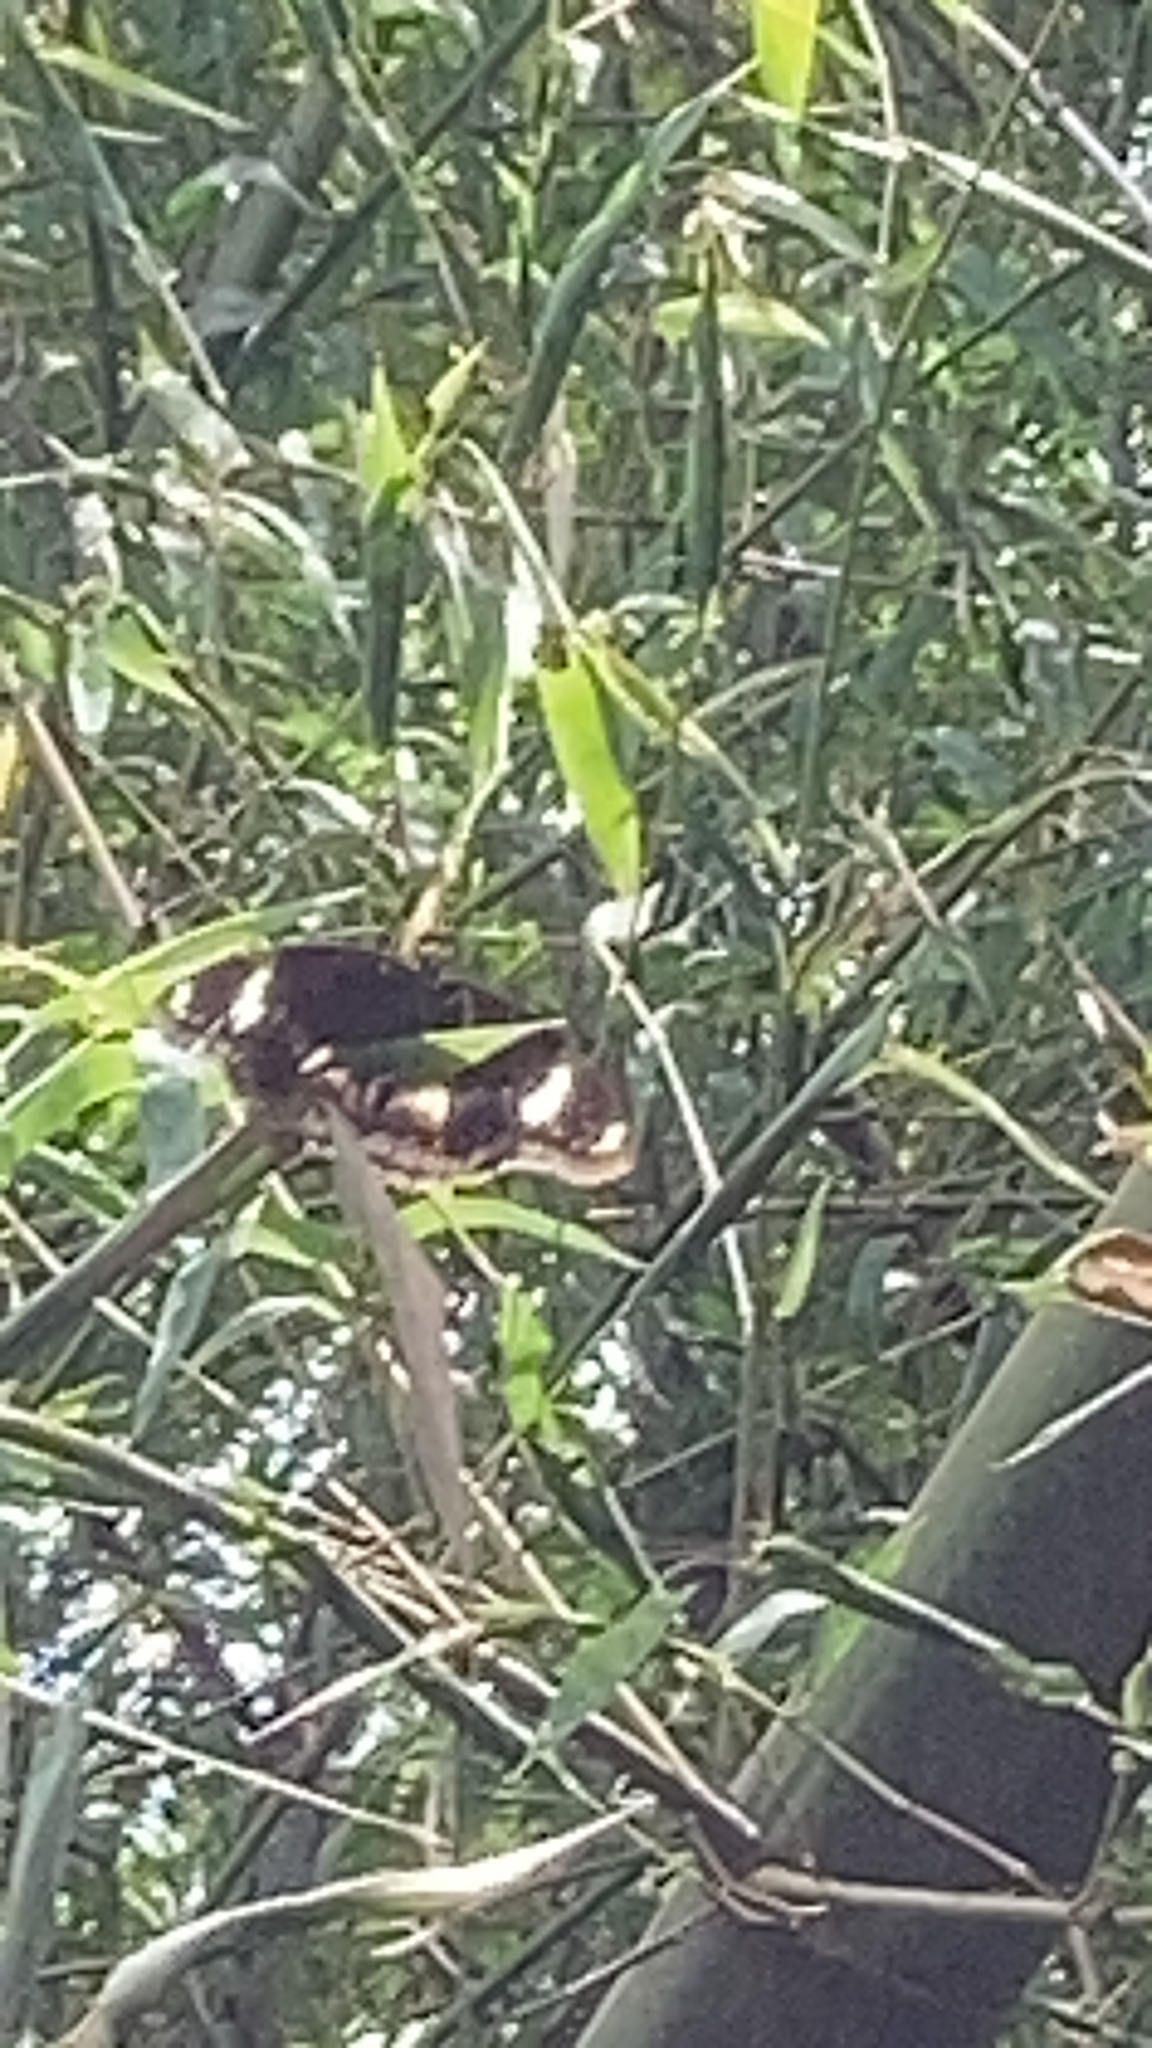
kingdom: Animalia
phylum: Arthropoda
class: Insecta
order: Lepidoptera
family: Nymphalidae
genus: Hypolimnas
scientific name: Hypolimnas bolina
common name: Great eggfly
